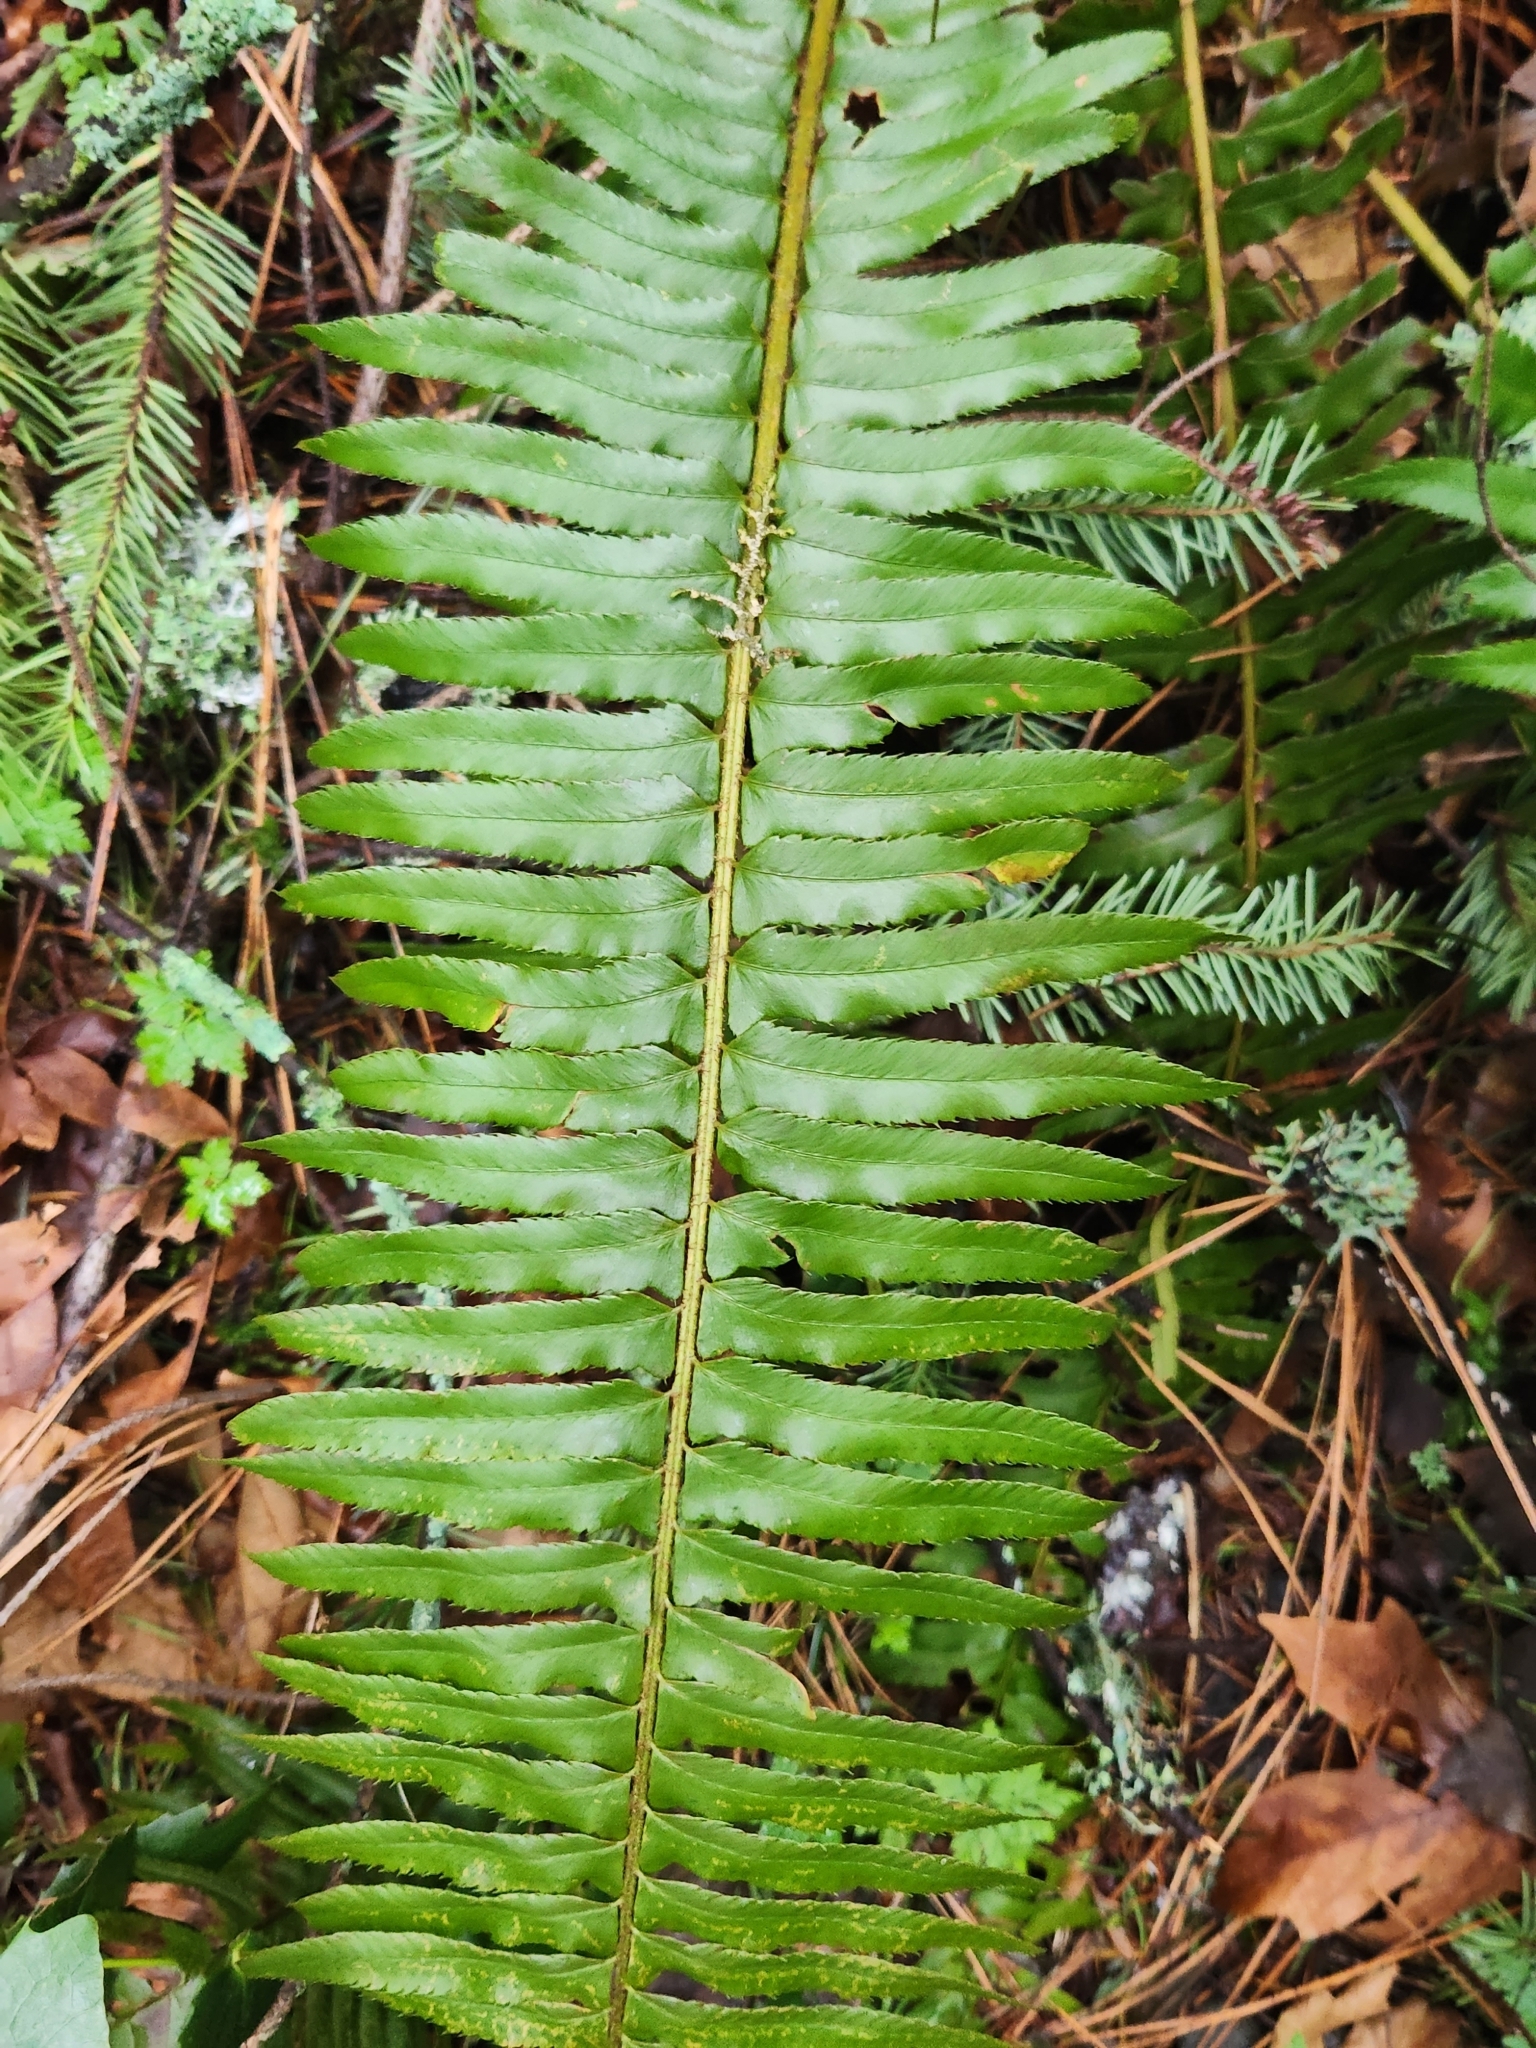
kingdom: Plantae
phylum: Tracheophyta
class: Polypodiopsida
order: Polypodiales
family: Dryopteridaceae
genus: Polystichum
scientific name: Polystichum munitum
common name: Western sword-fern
